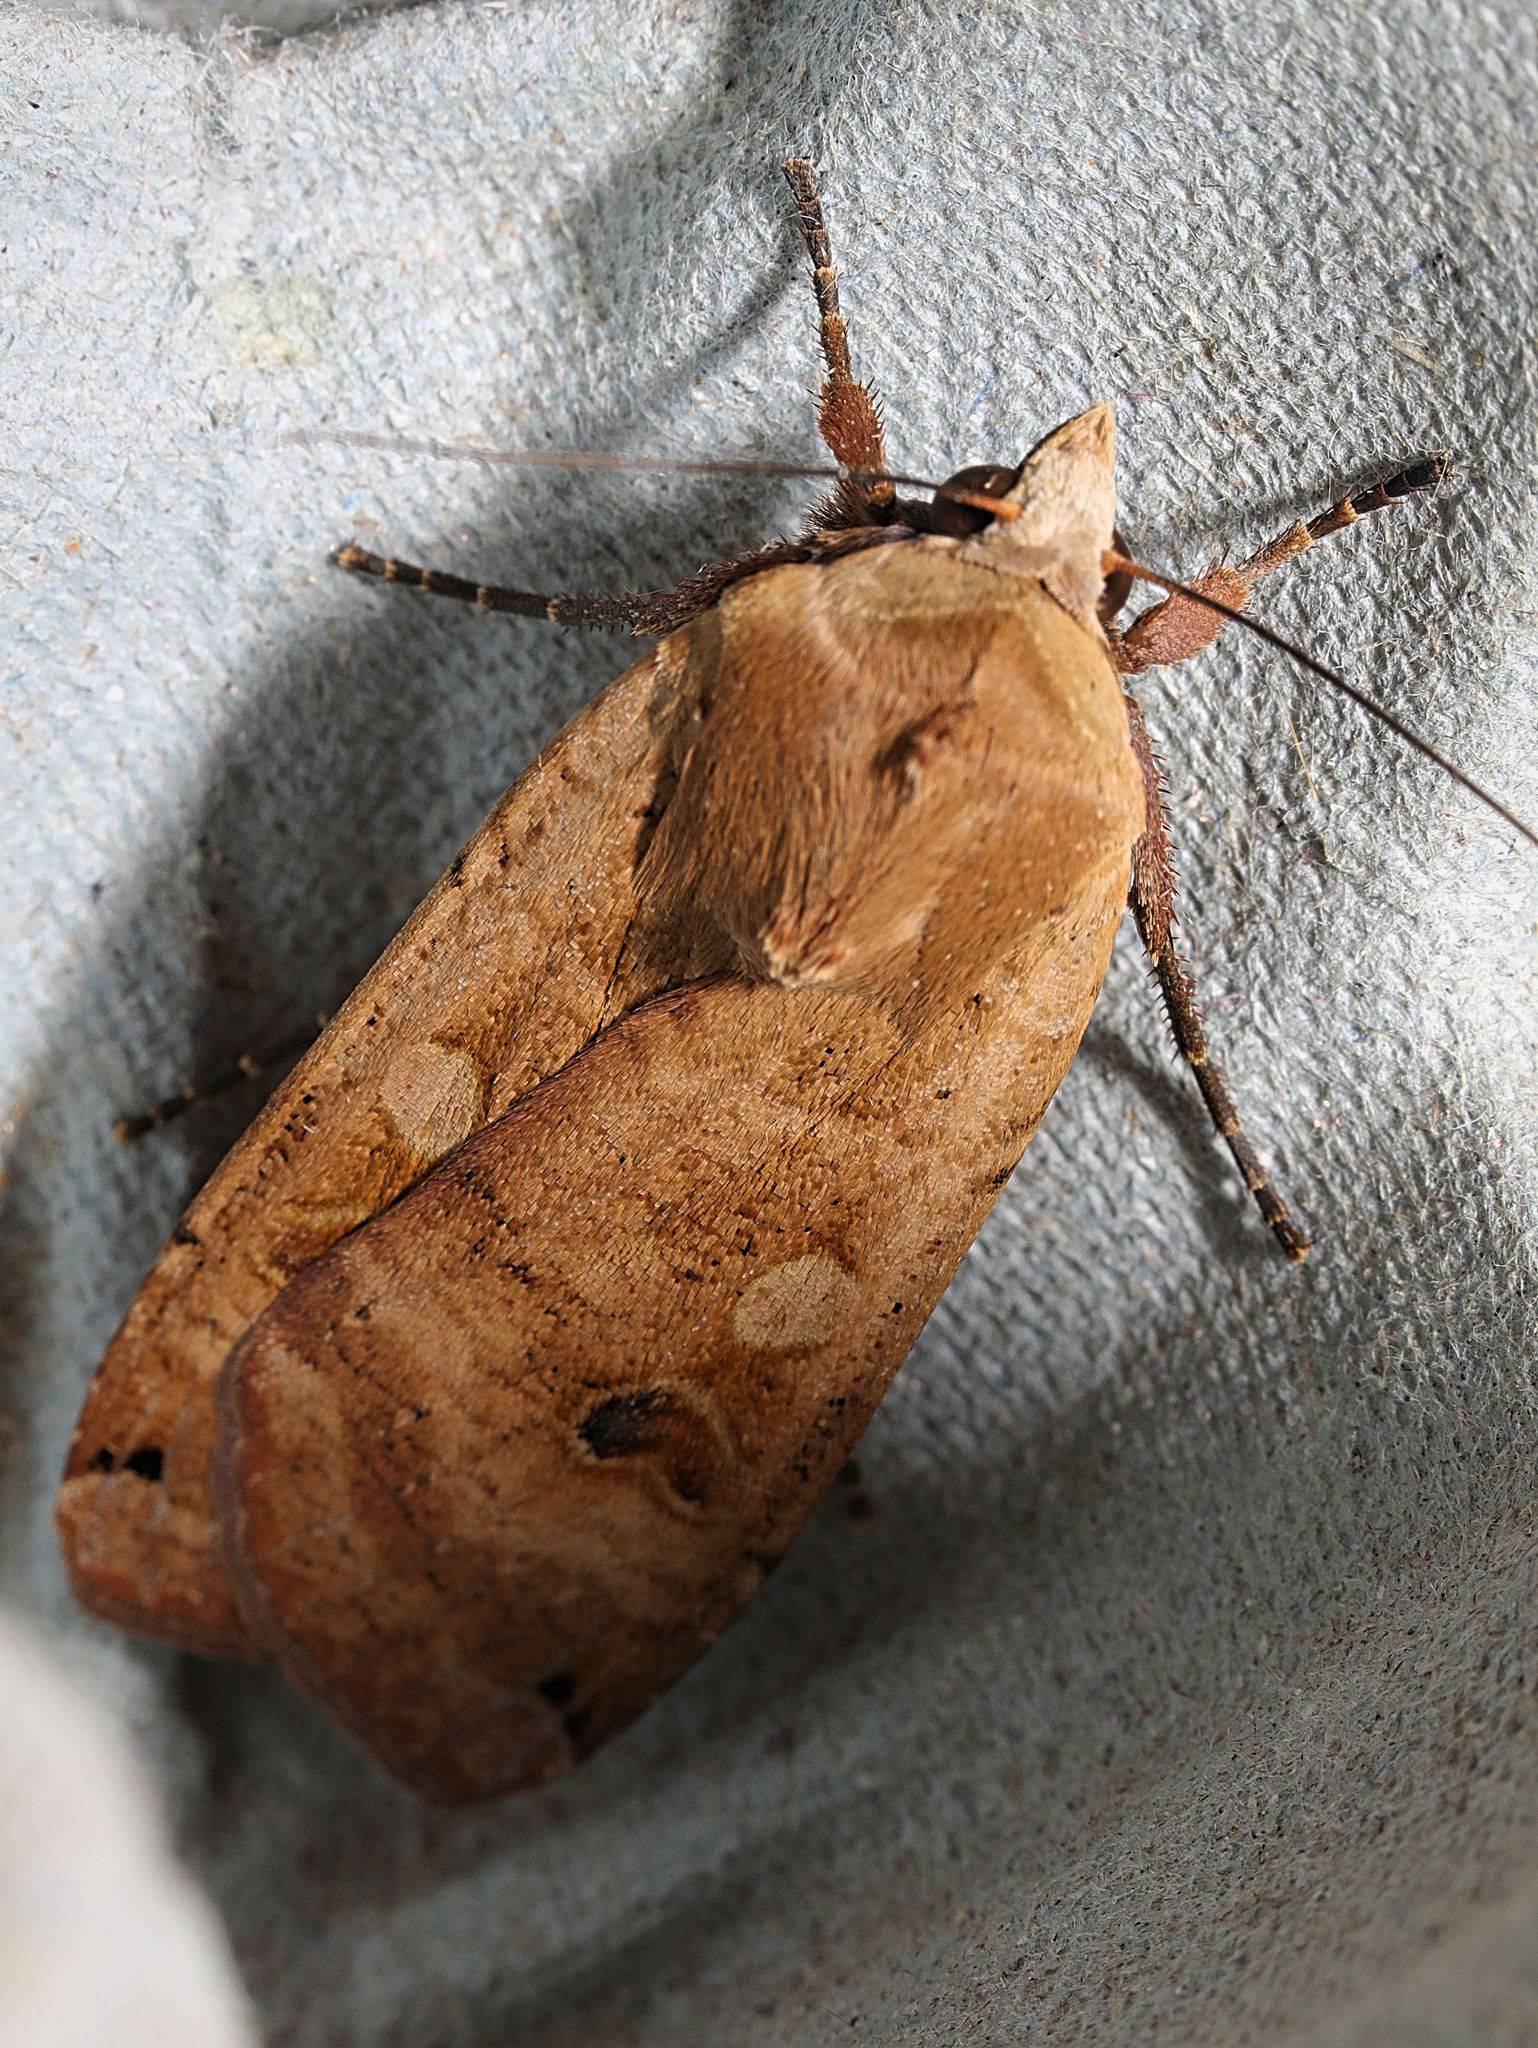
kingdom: Animalia
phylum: Arthropoda
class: Insecta
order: Lepidoptera
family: Noctuidae
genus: Noctua
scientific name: Noctua pronuba
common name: Large yellow underwing
